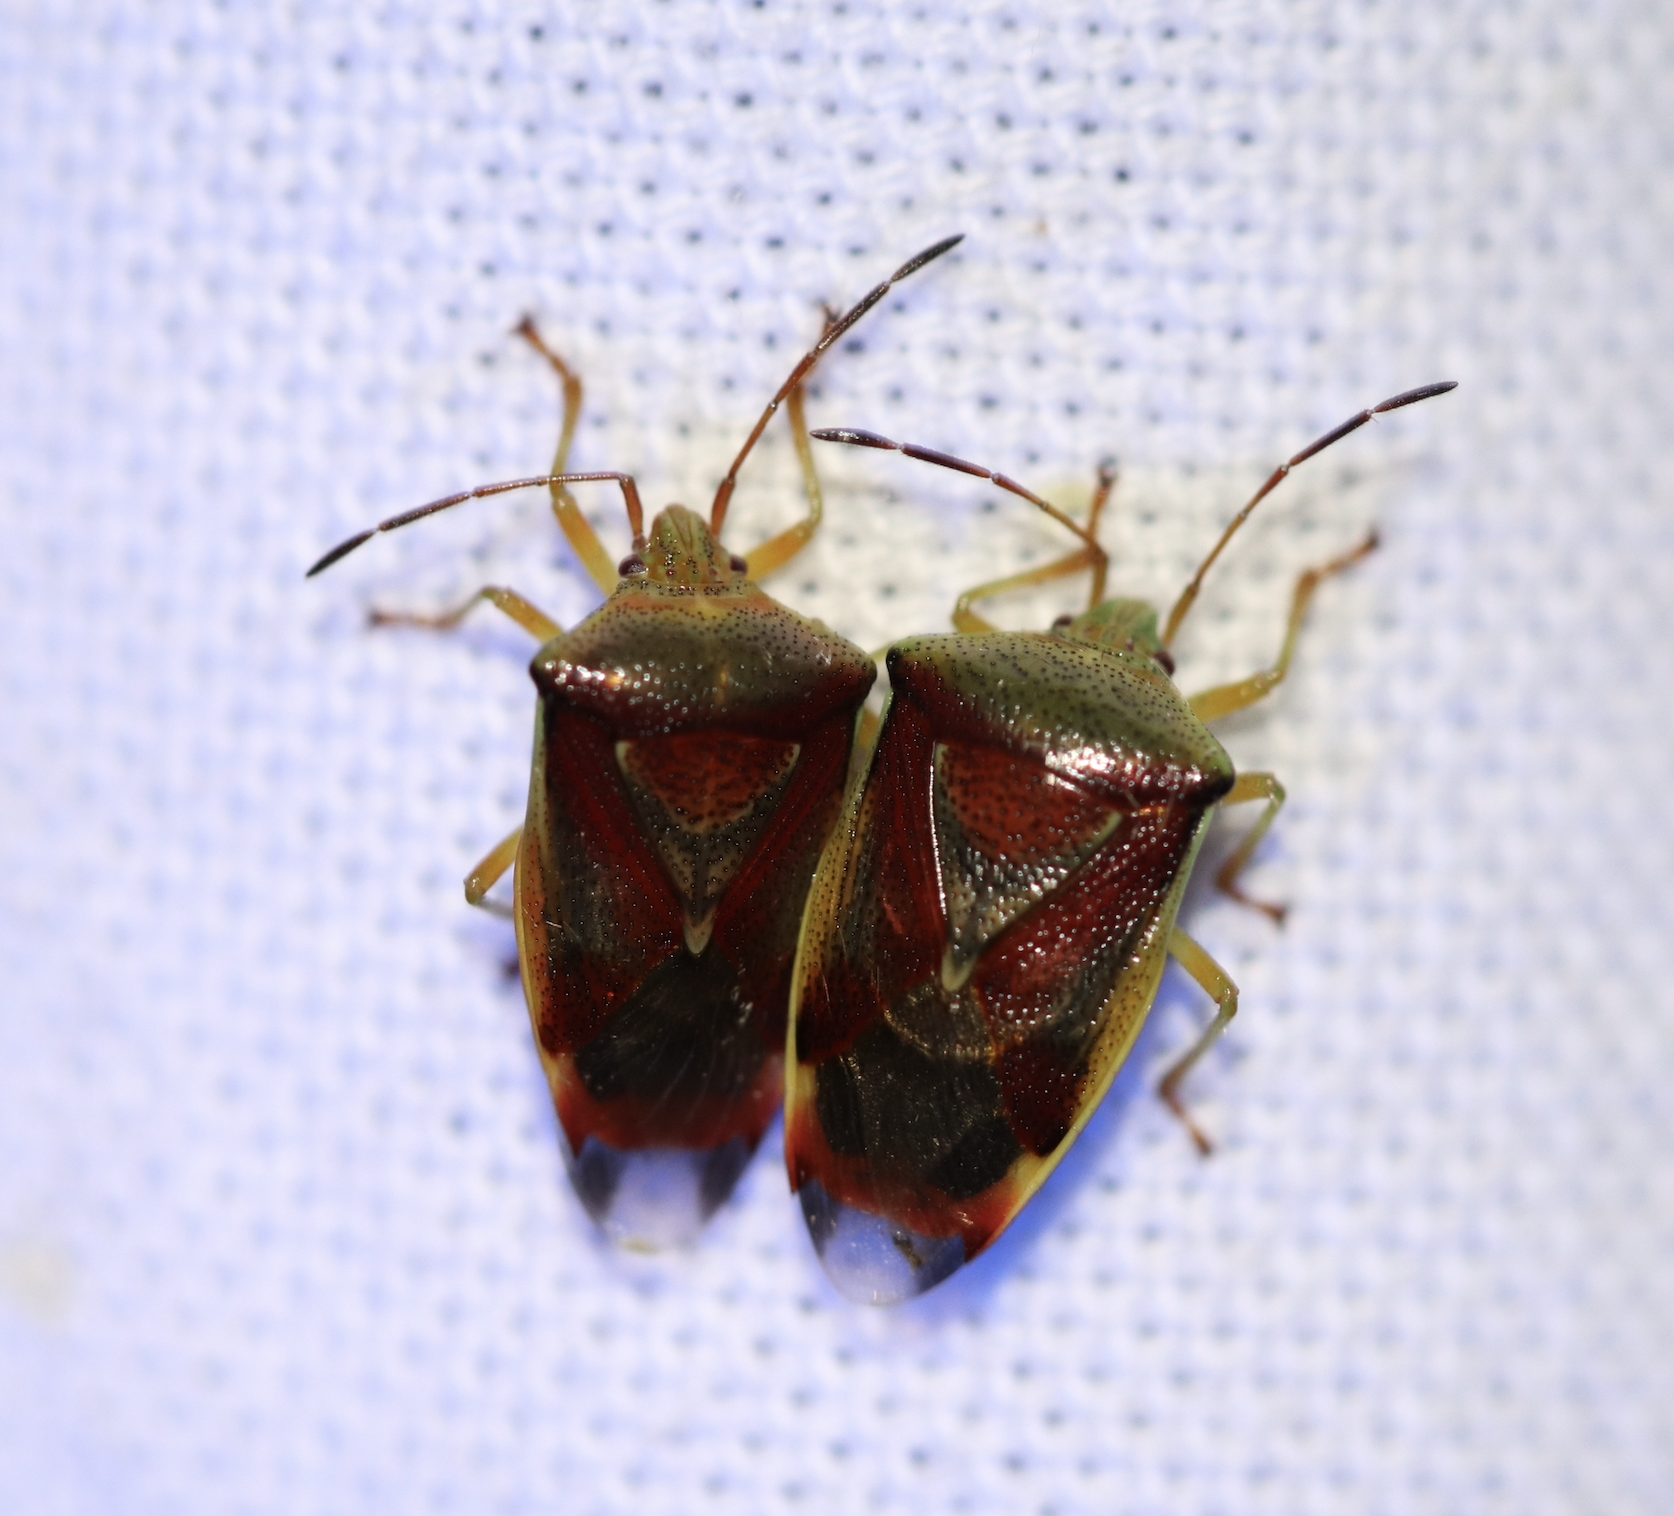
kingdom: Animalia
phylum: Arthropoda
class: Insecta
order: Hemiptera
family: Acanthosomatidae
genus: Elasmostethus
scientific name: Elasmostethus interstinctus
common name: Birch shieldbug
